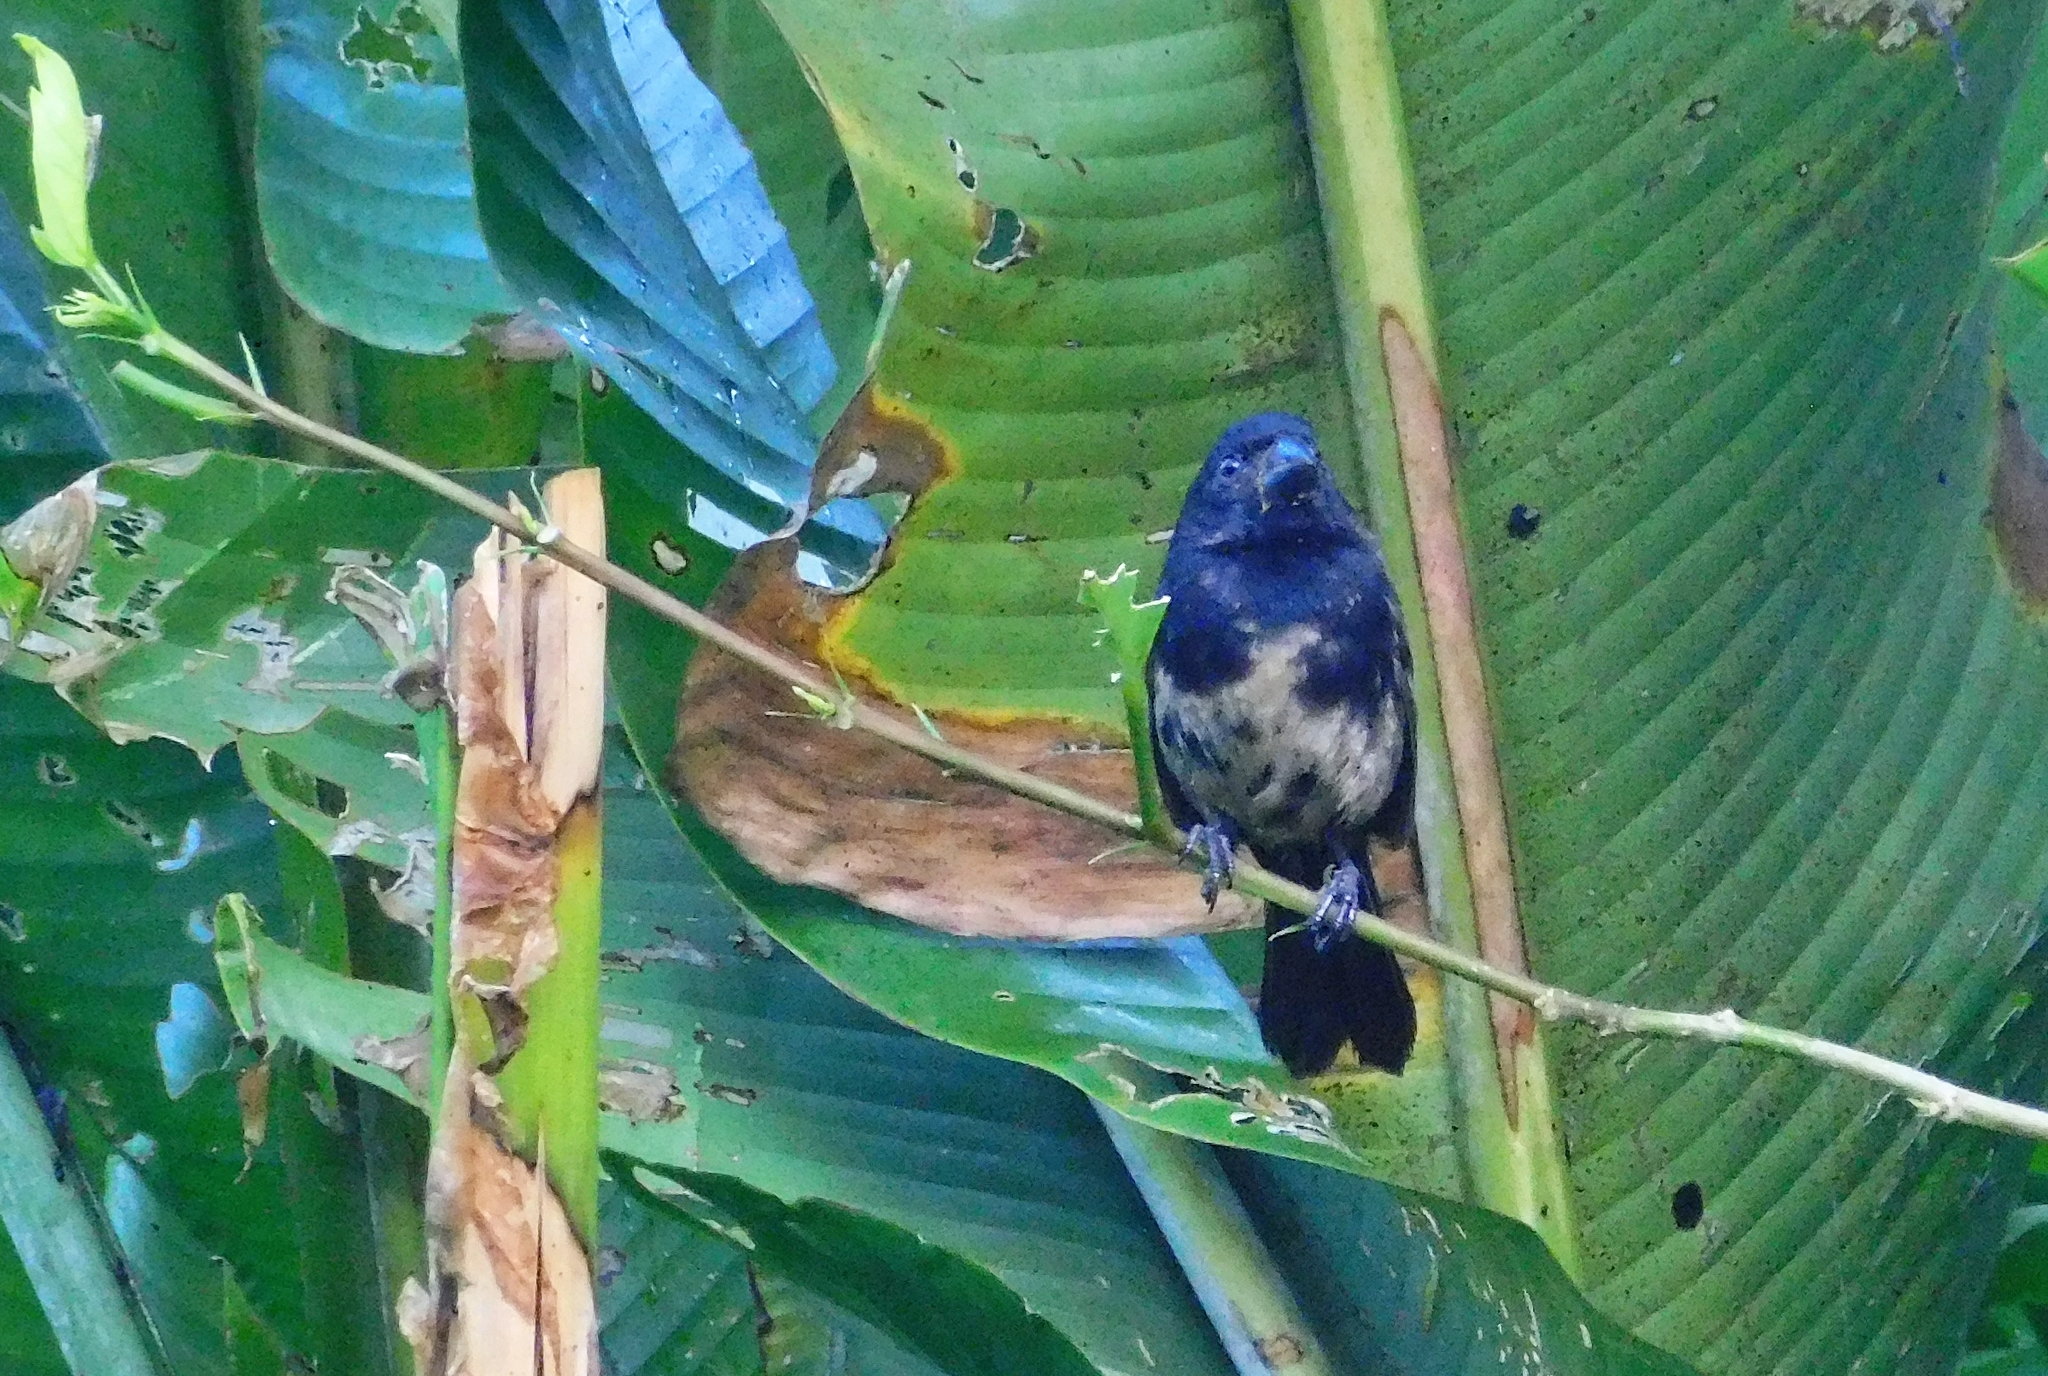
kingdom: Animalia
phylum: Chordata
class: Aves
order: Passeriformes
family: Thraupidae
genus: Sporophila
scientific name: Sporophila corvina
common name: Variable seedeater
